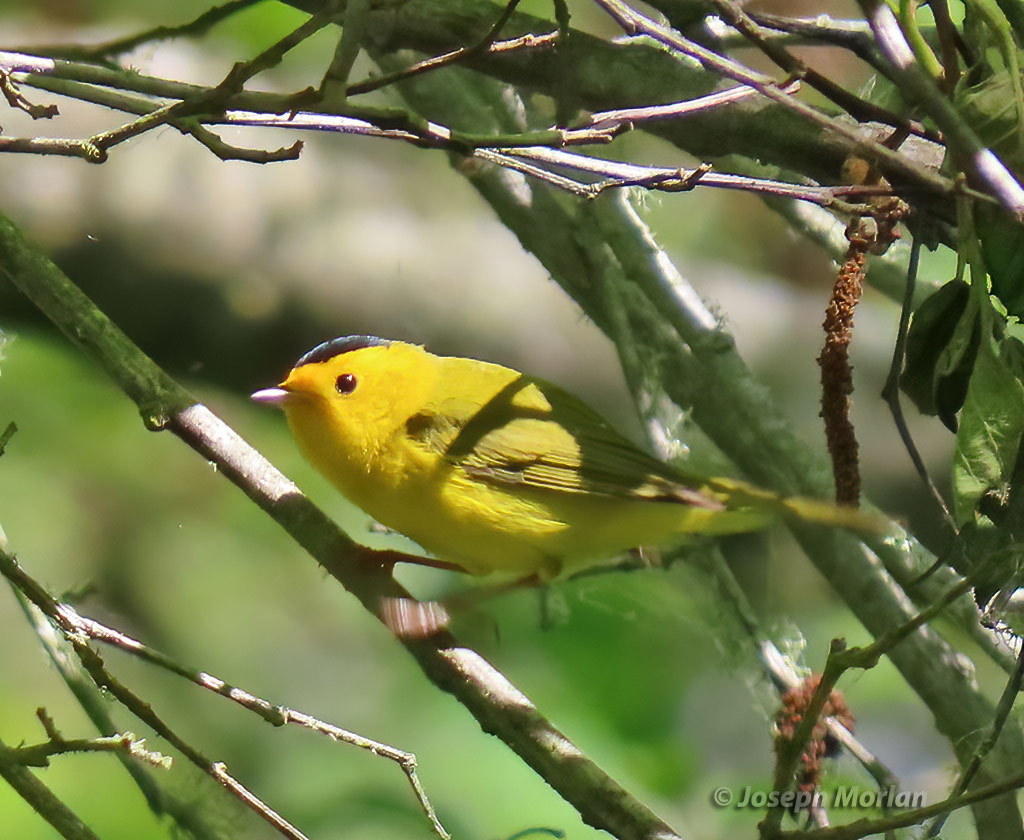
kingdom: Animalia
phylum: Chordata
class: Aves
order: Passeriformes
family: Parulidae
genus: Cardellina
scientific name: Cardellina pusilla
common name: Wilson's warbler
